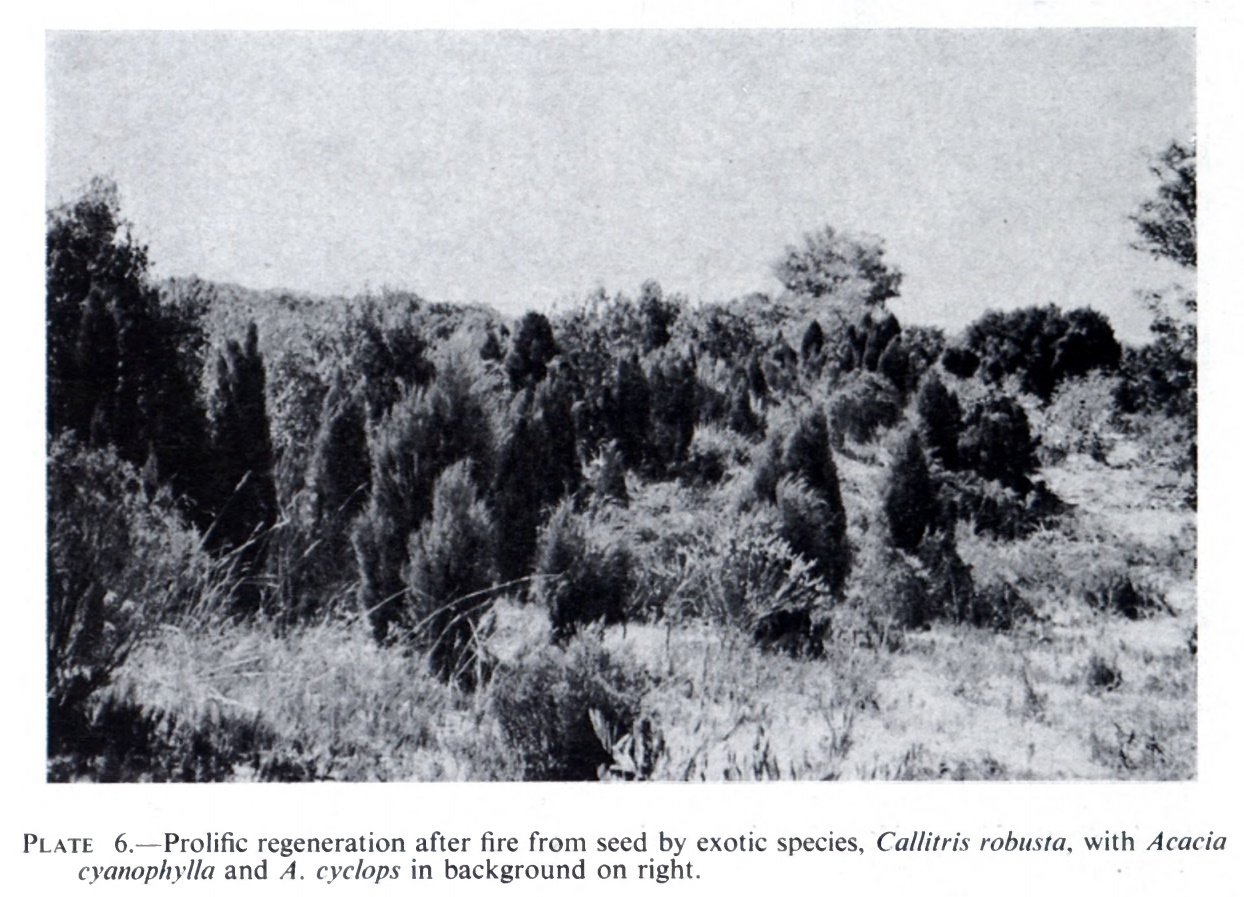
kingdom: Plantae
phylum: Tracheophyta
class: Pinopsida
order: Pinales
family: Cupressaceae
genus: Callitris
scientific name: Callitris preissii
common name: Mallee pine
